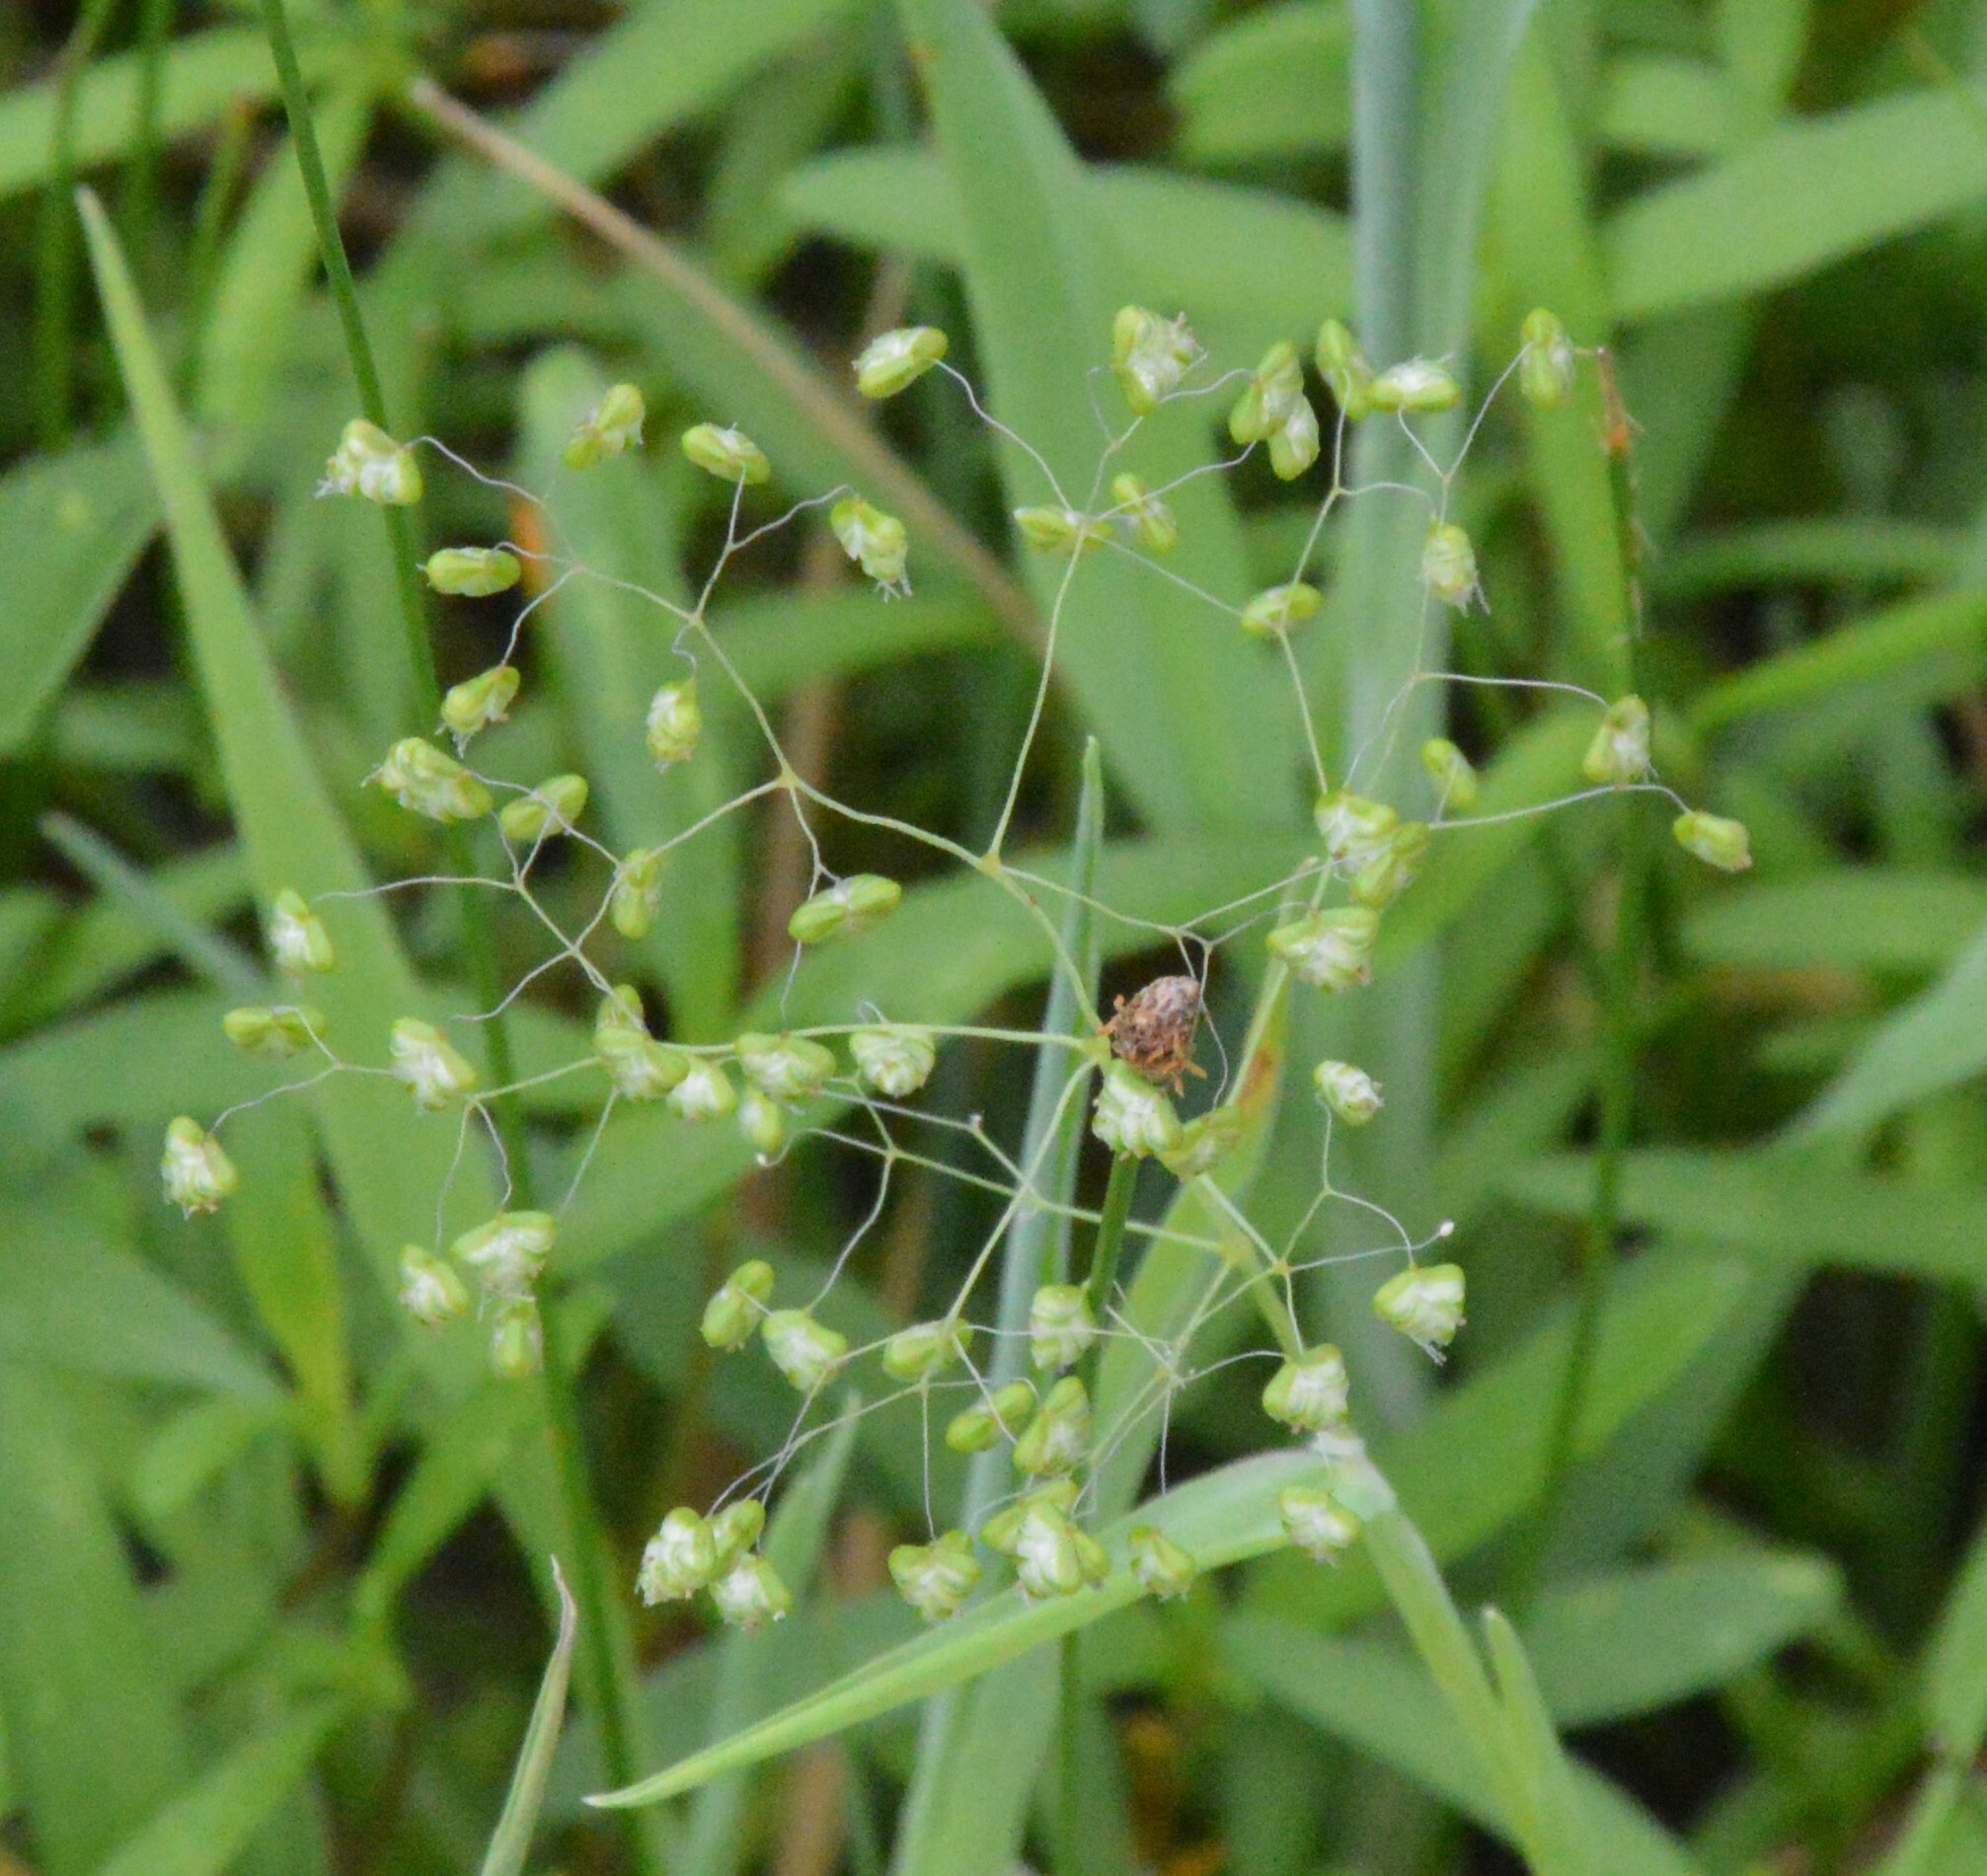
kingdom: Plantae
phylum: Tracheophyta
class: Liliopsida
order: Poales
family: Poaceae
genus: Briza
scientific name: Briza minor
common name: Lesser quaking-grass
